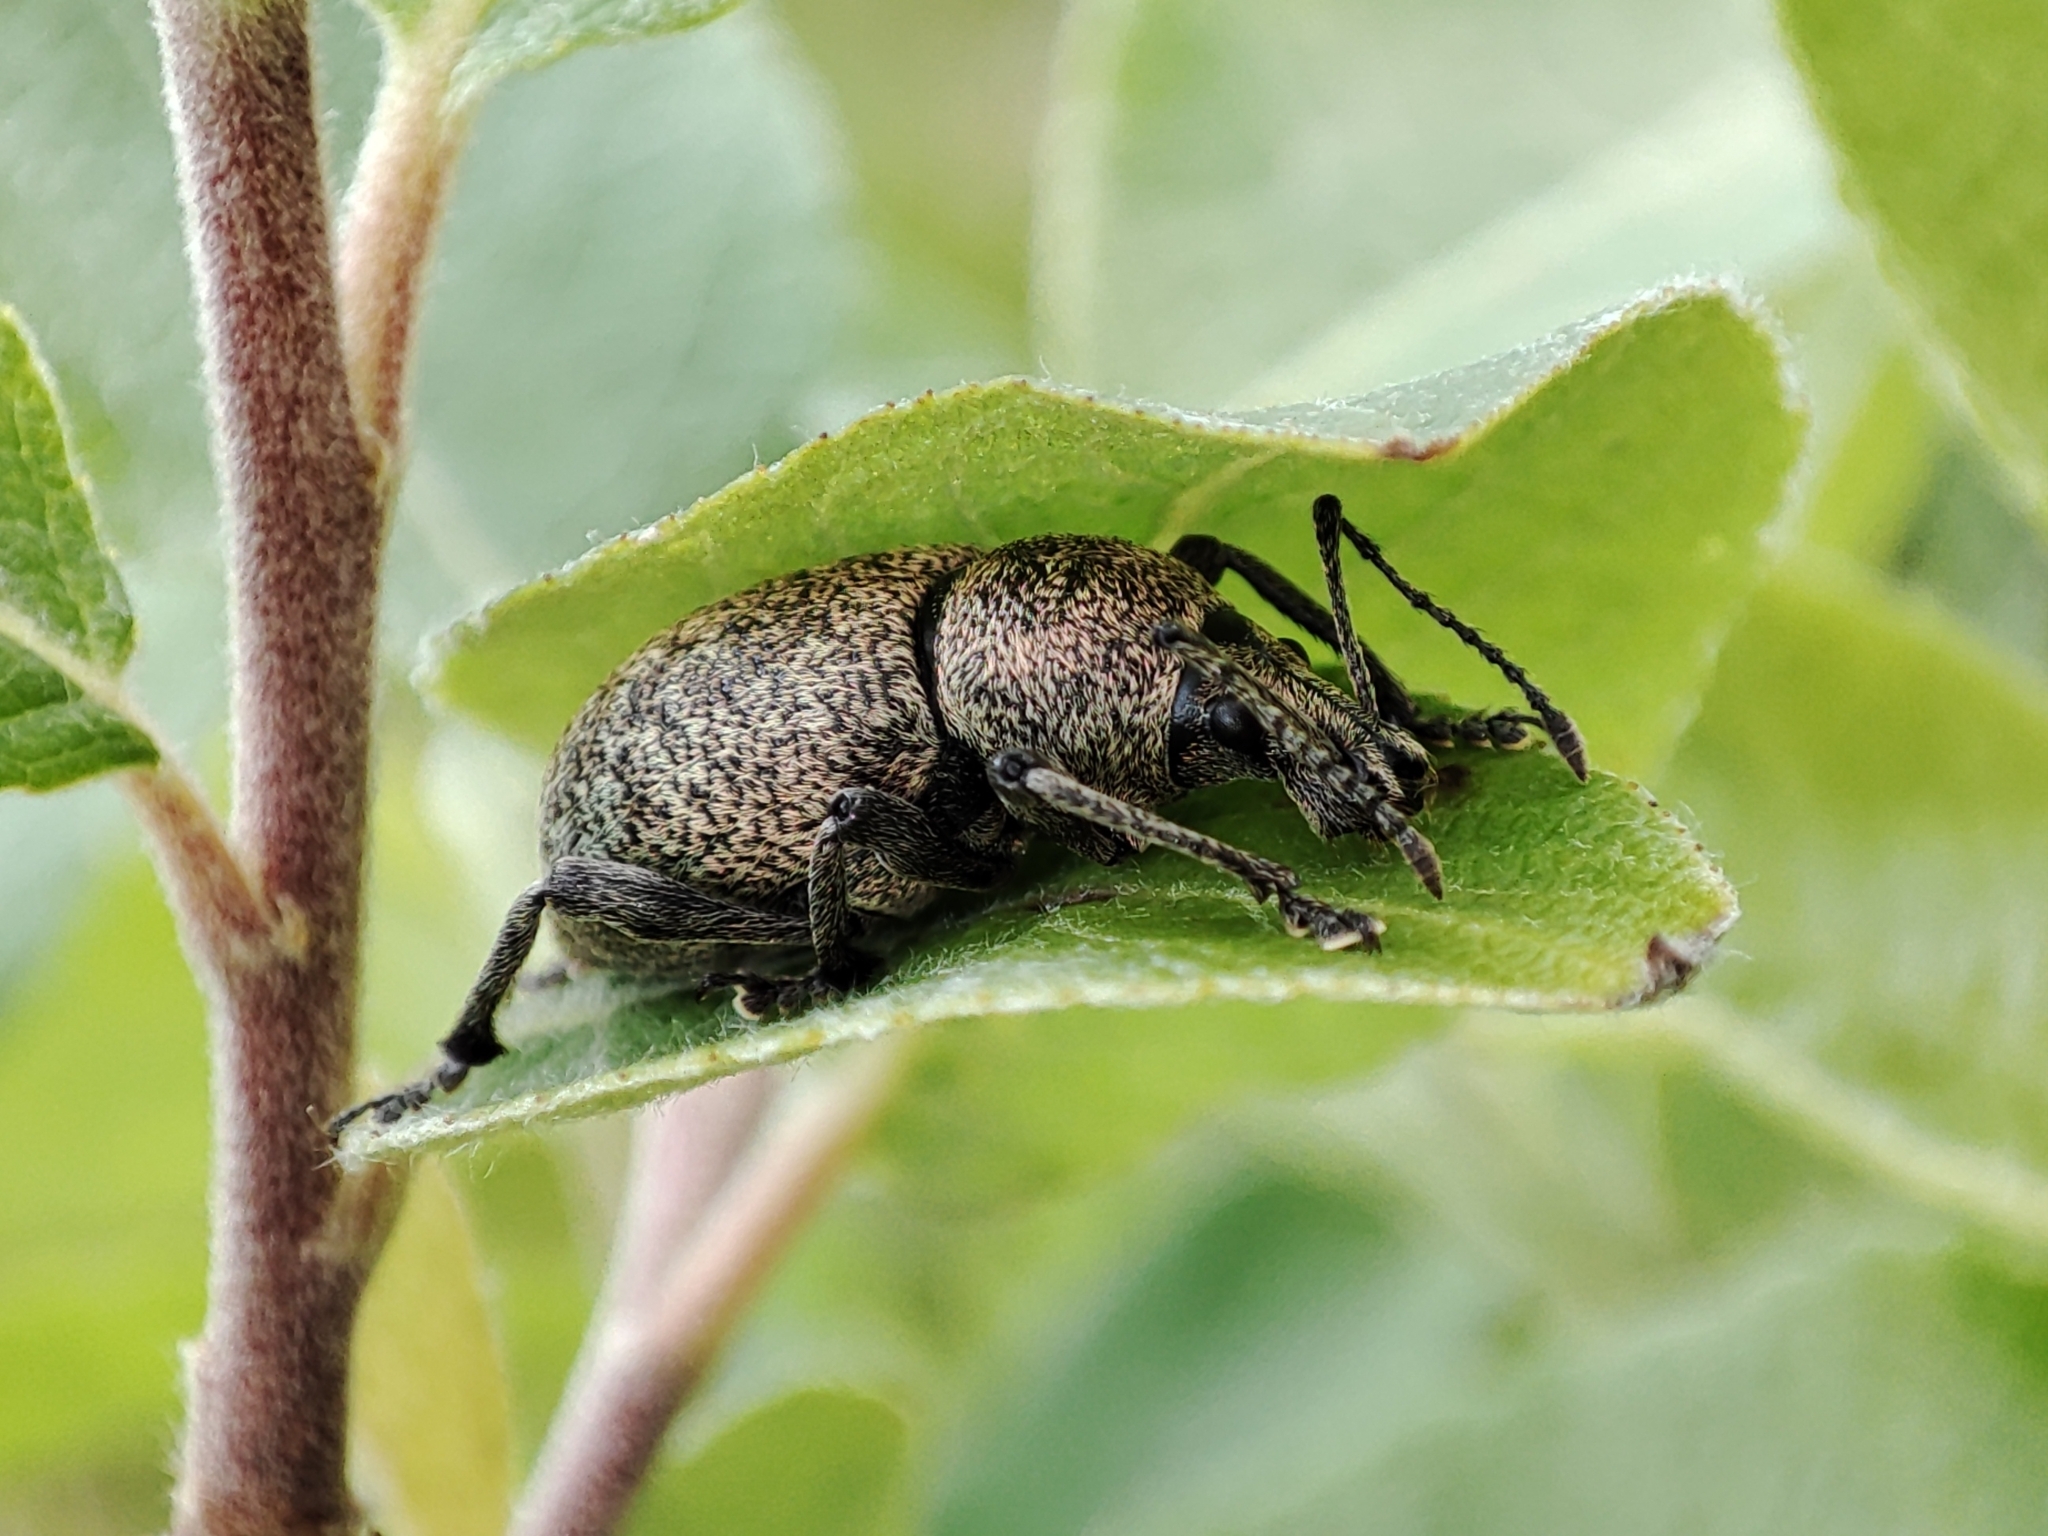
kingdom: Animalia
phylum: Arthropoda
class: Insecta
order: Coleoptera
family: Curculionidae
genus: Otiorhynchus
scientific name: Otiorhynchus bisulcatus
